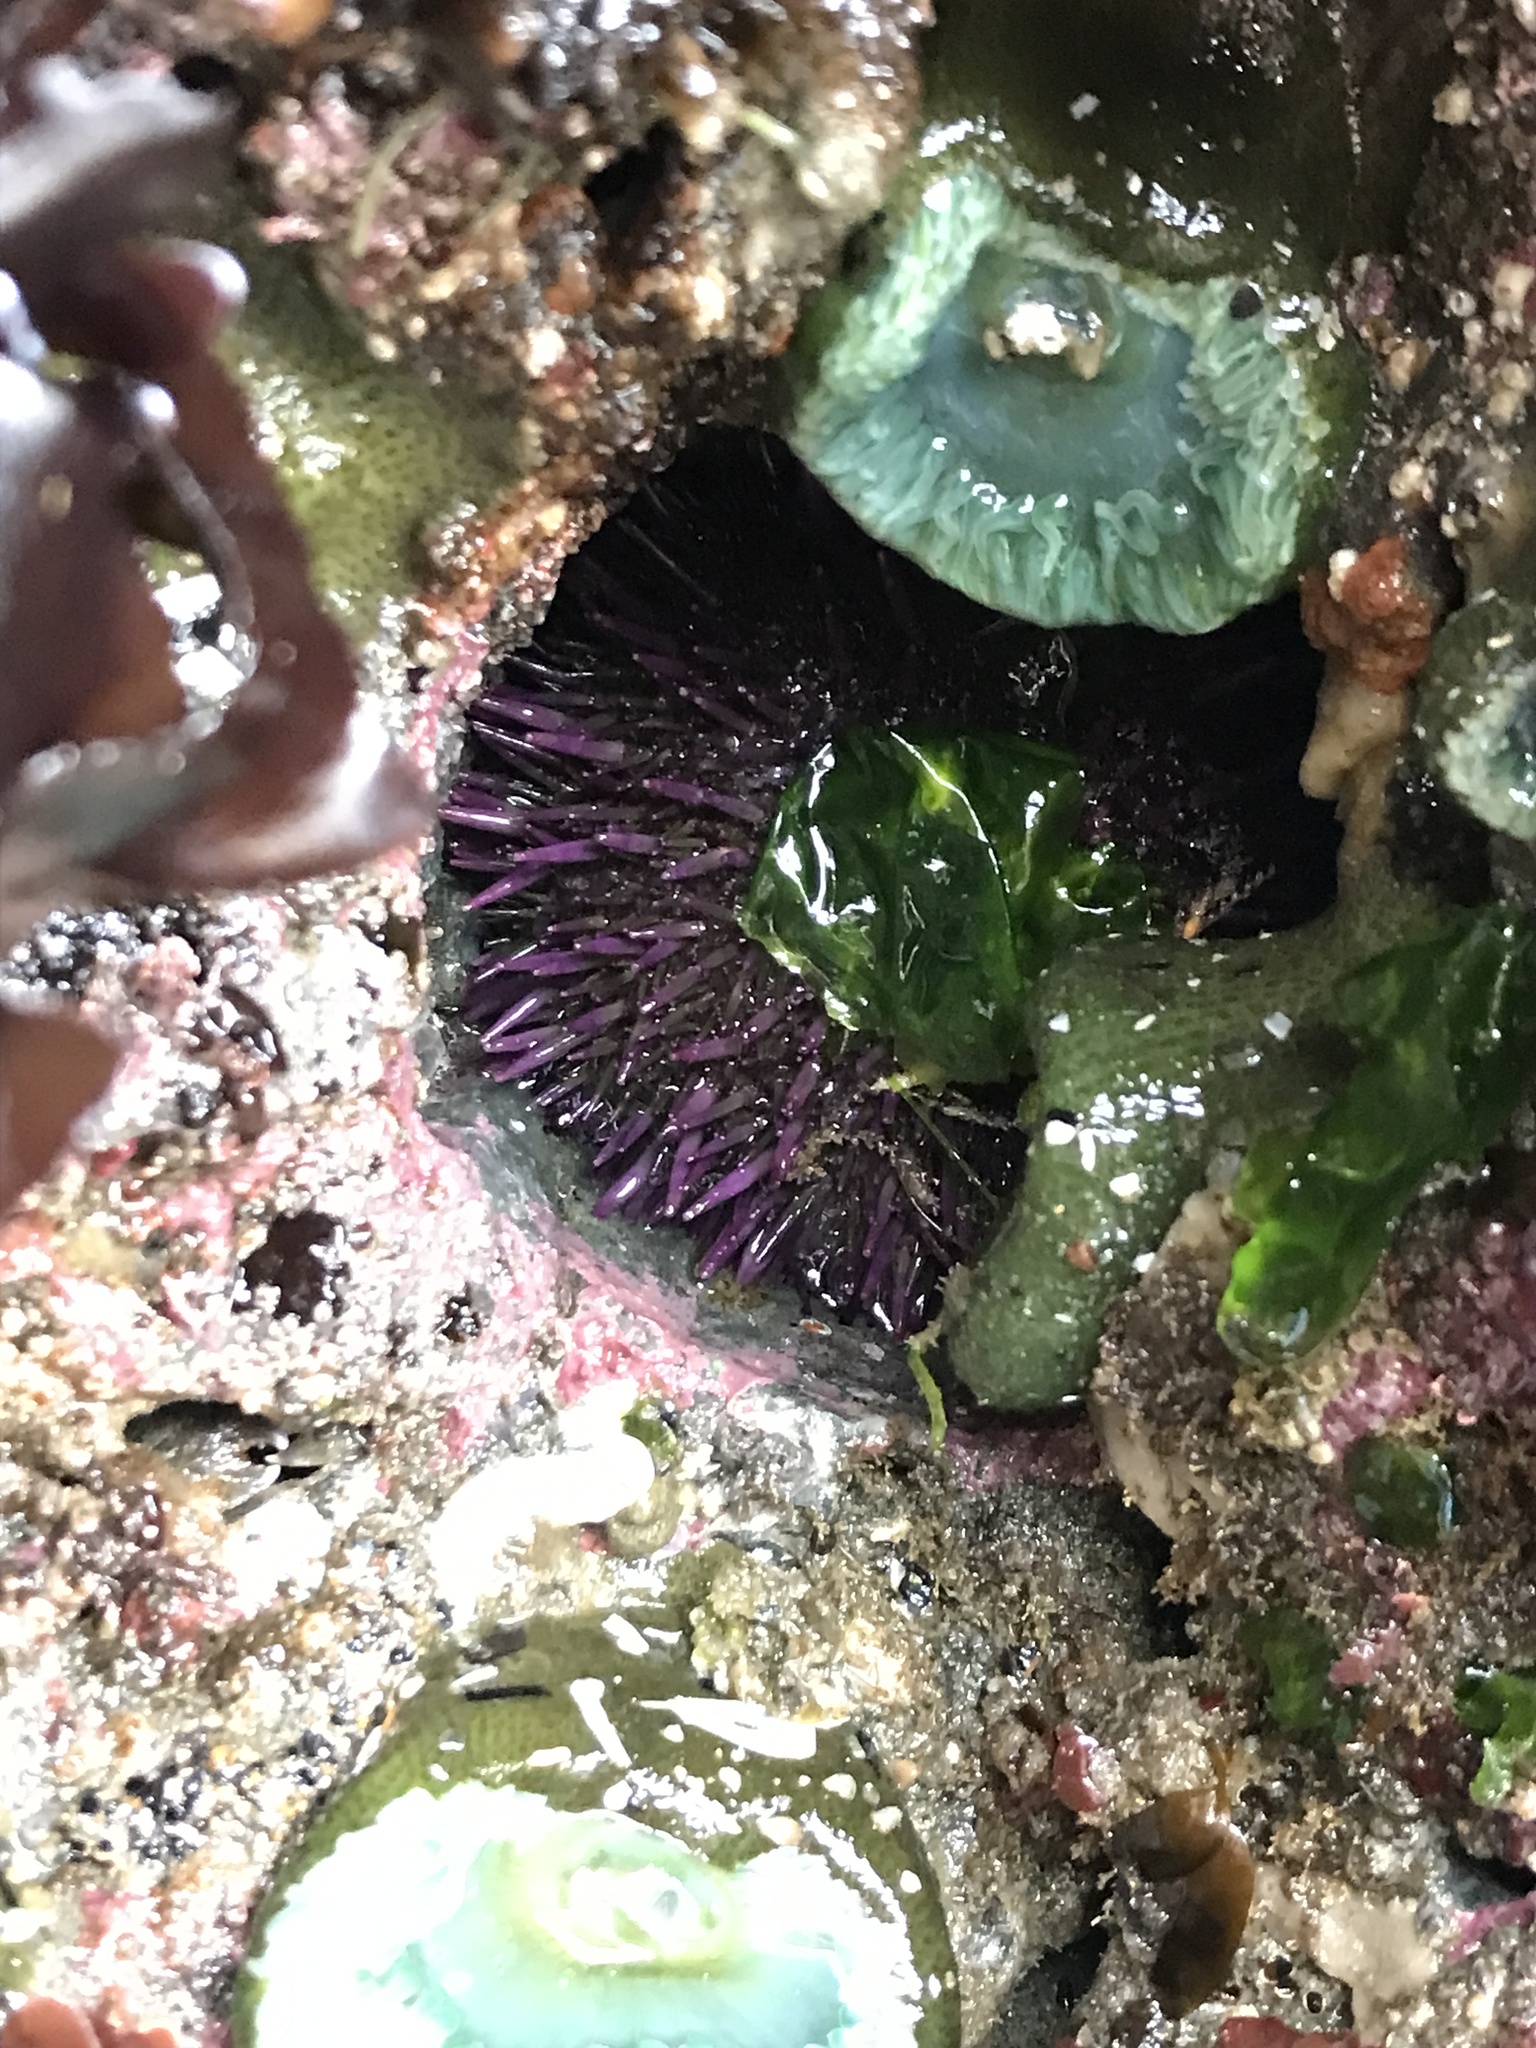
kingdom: Animalia
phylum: Echinodermata
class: Echinoidea
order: Camarodonta
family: Strongylocentrotidae
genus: Strongylocentrotus
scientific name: Strongylocentrotus purpuratus
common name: Purple sea urchin
